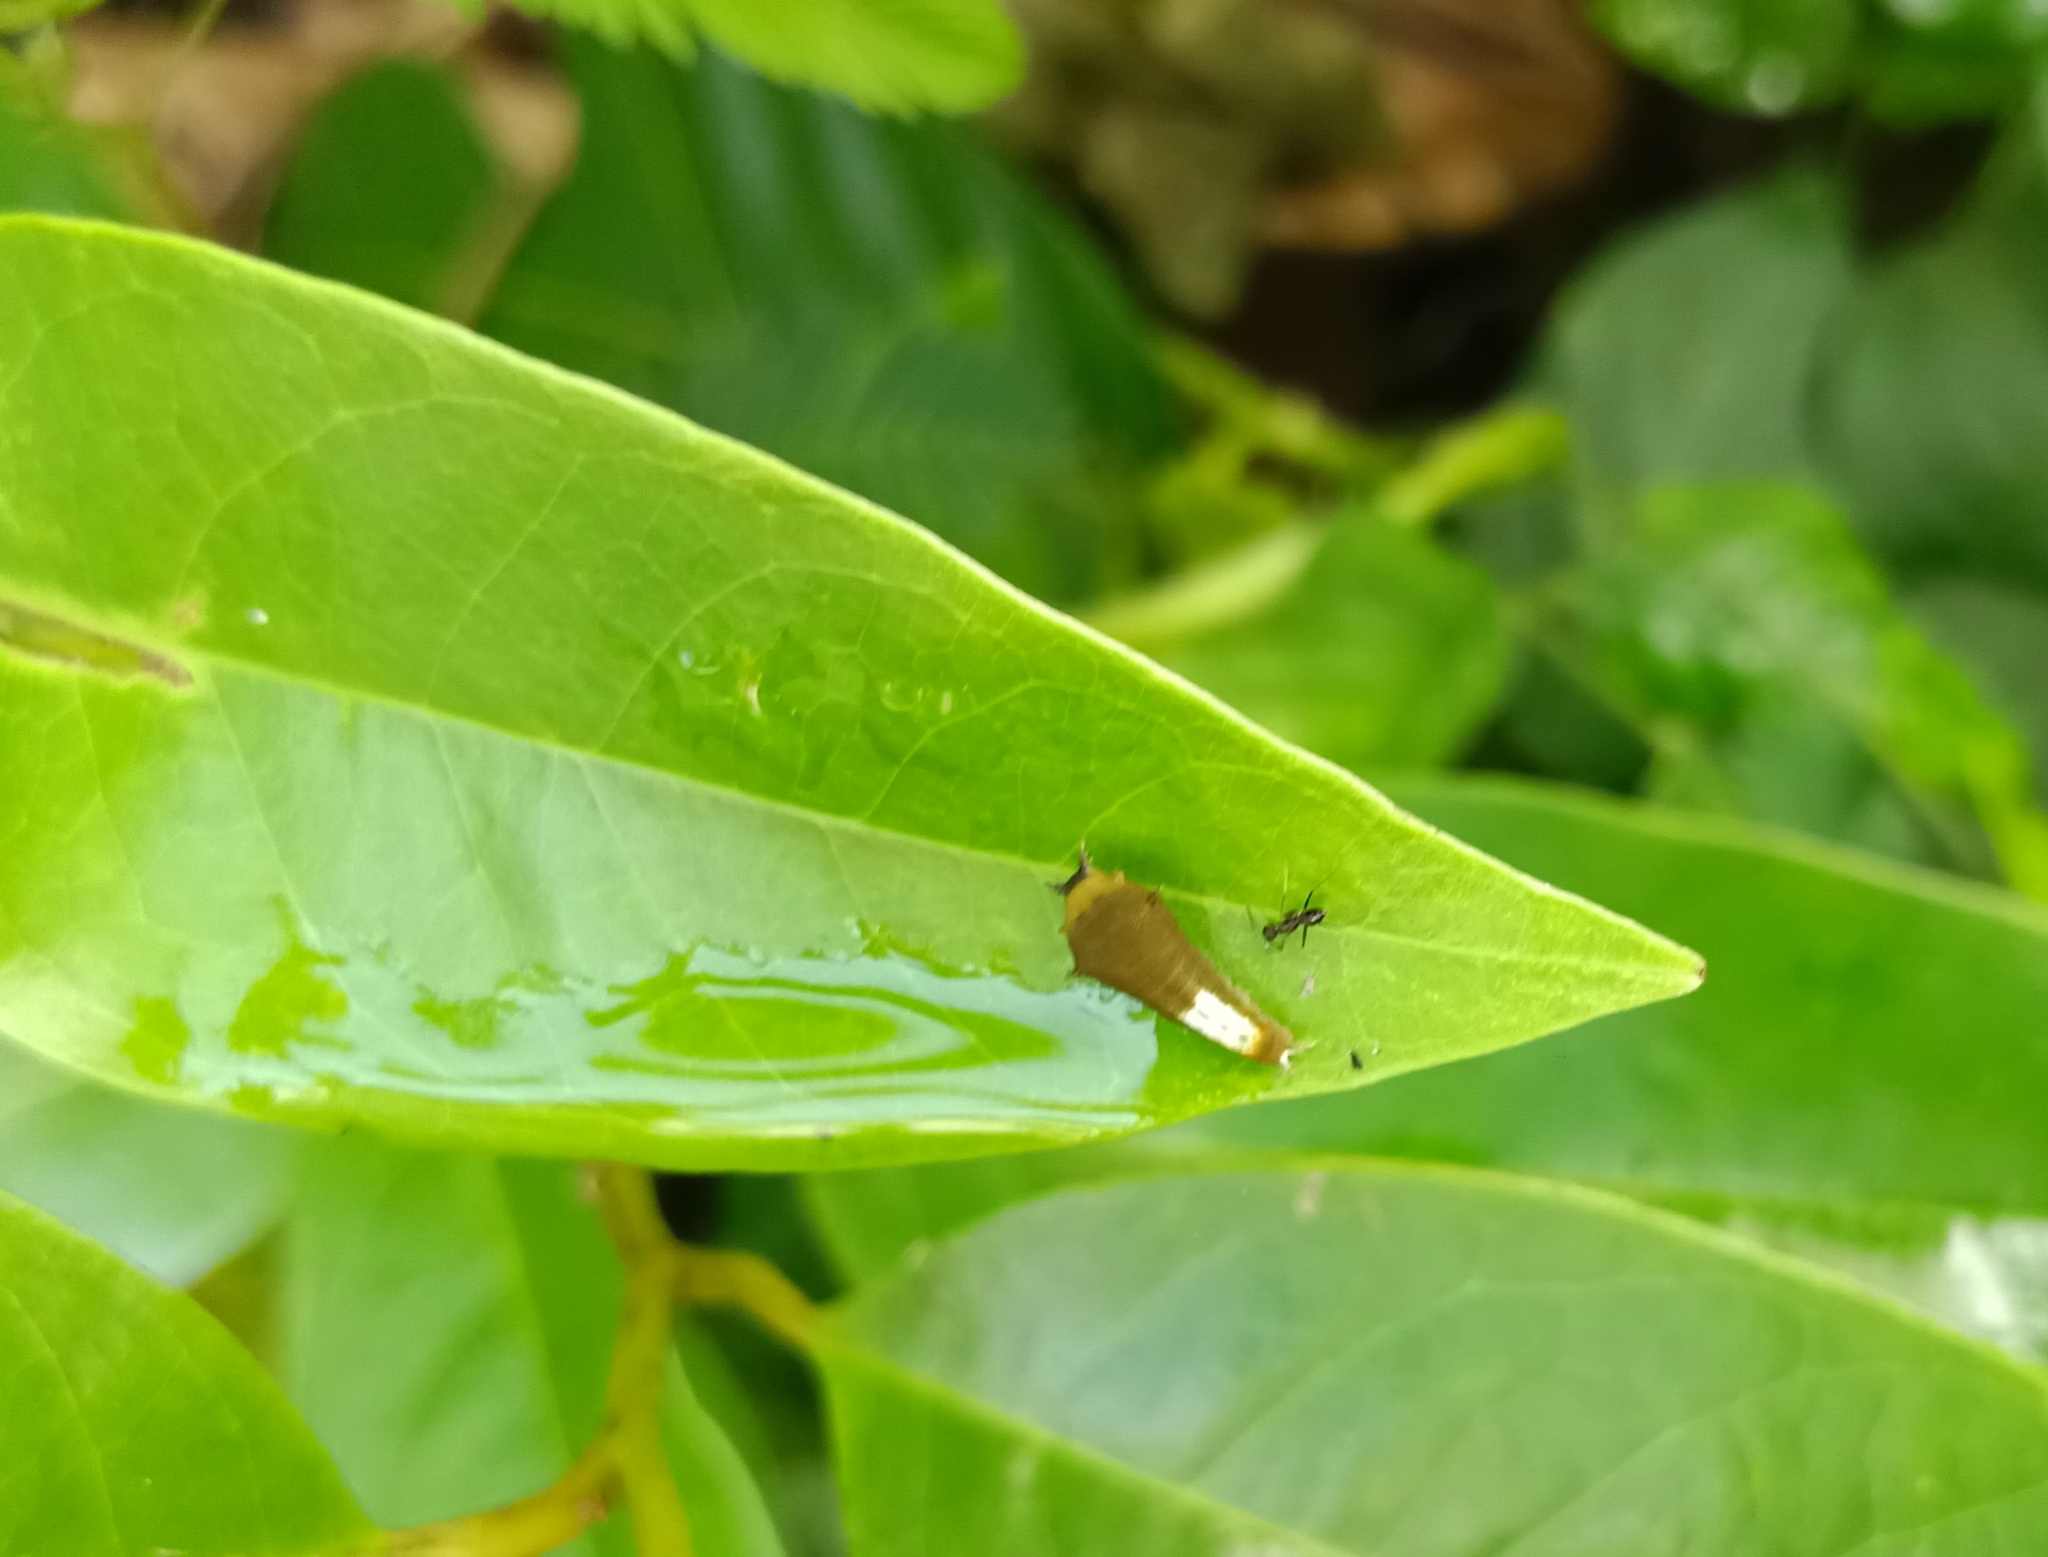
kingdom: Animalia
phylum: Arthropoda
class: Insecta
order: Lepidoptera
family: Papilionidae
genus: Graphium
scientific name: Graphium agamemnon
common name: Tailed jay
